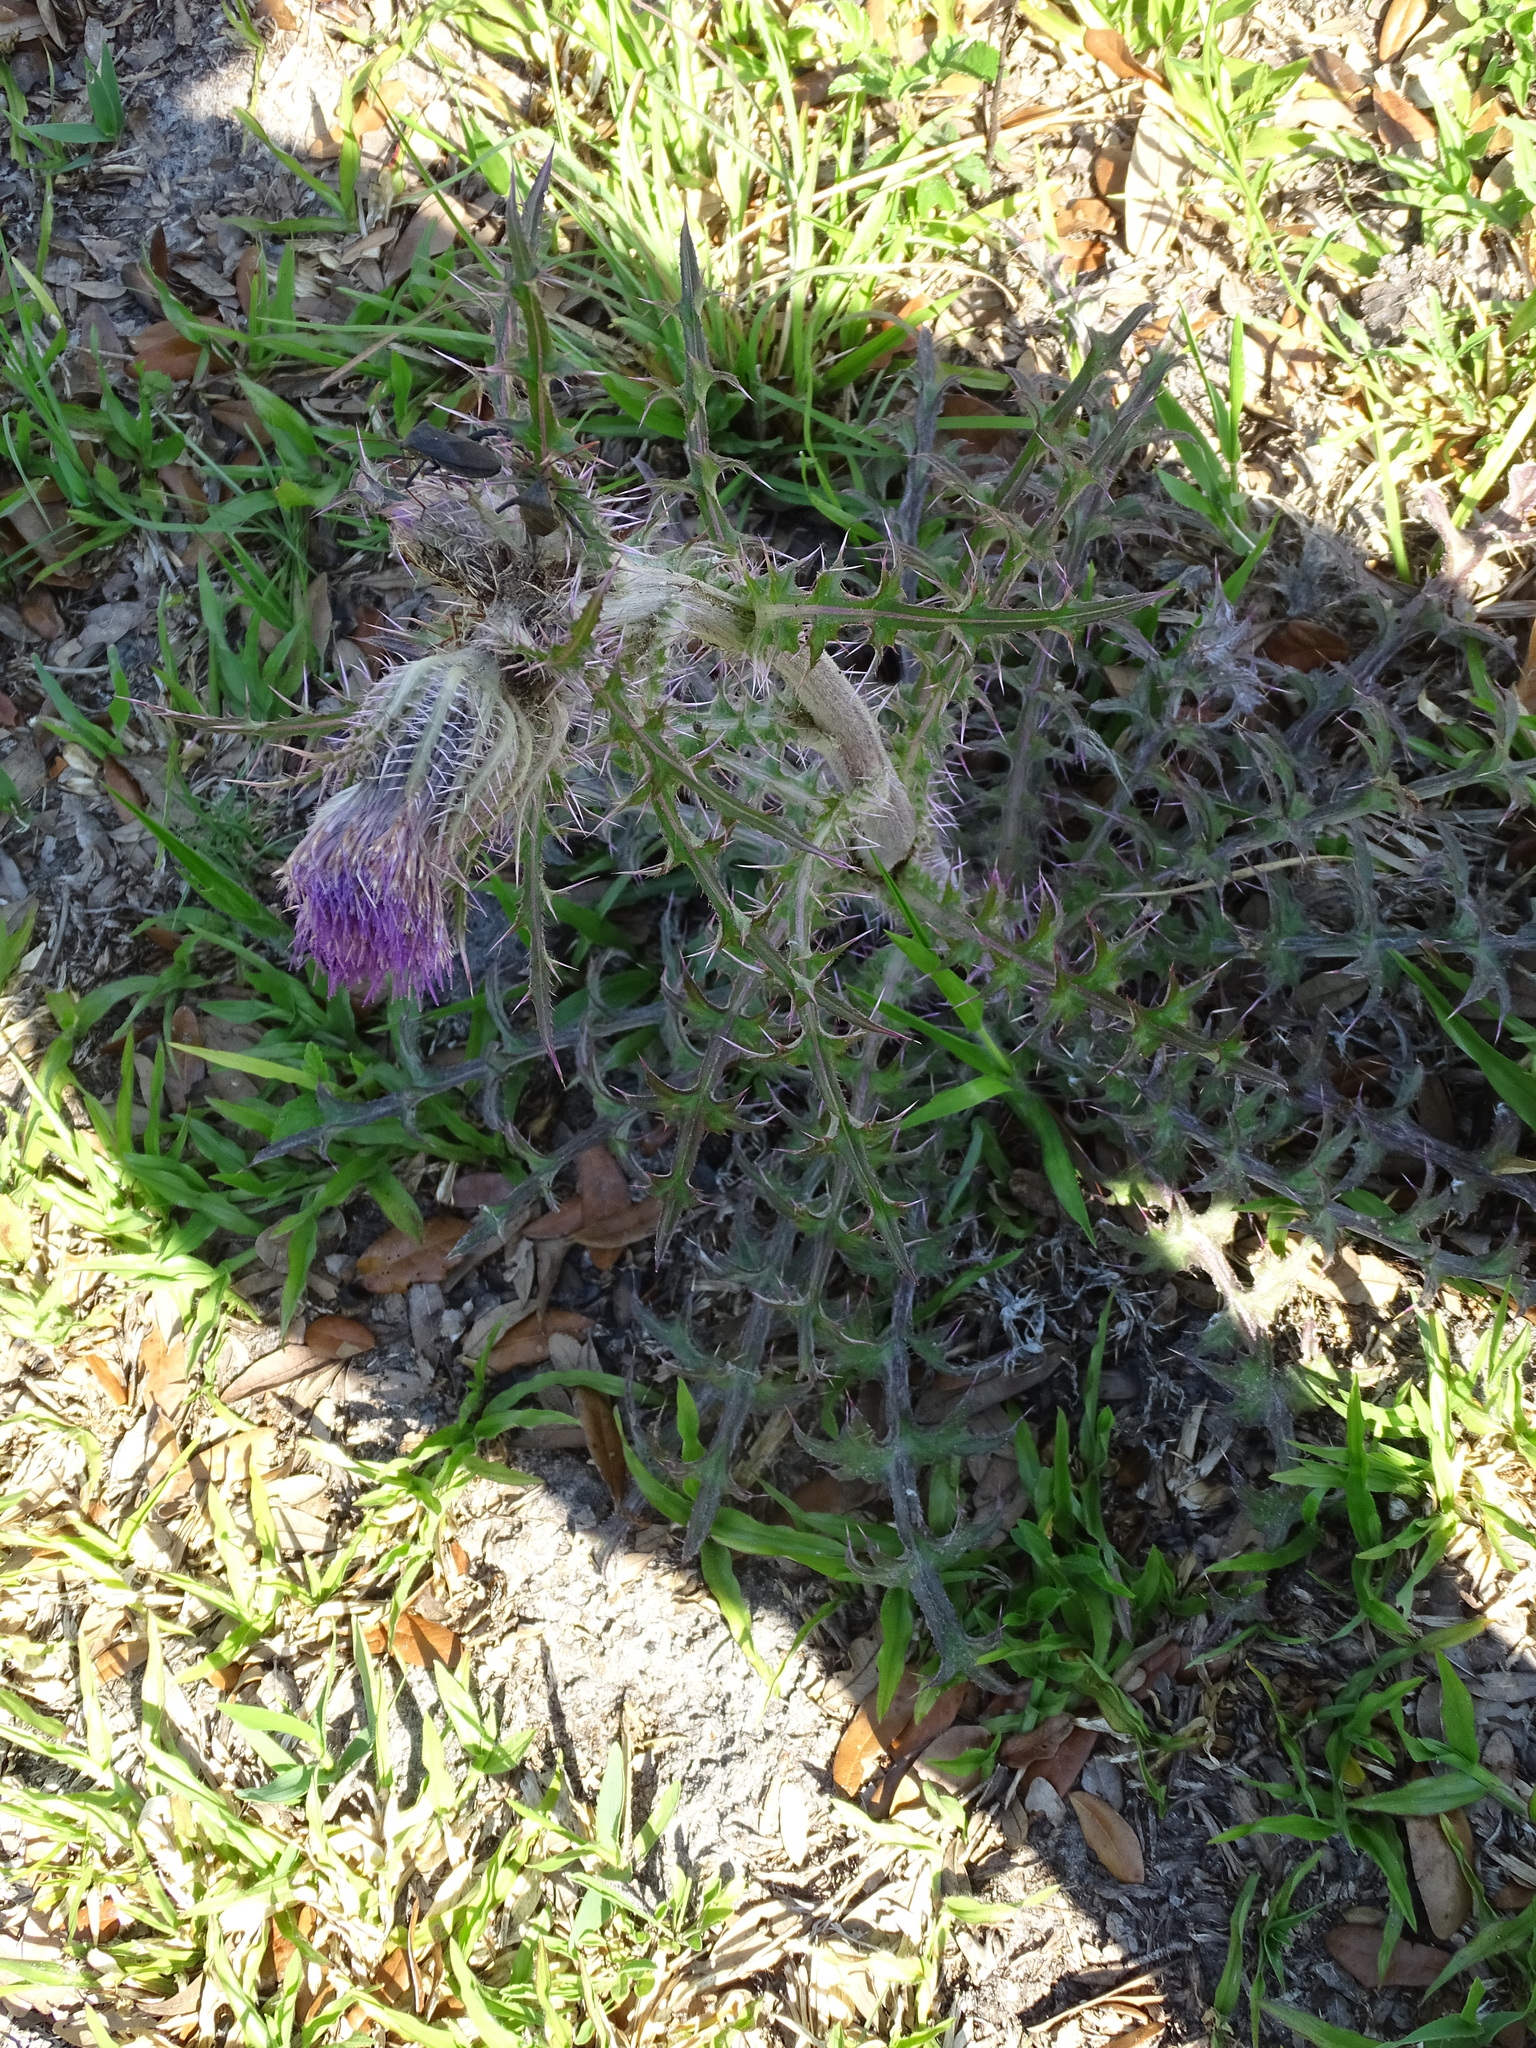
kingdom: Plantae
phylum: Tracheophyta
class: Magnoliopsida
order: Asterales
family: Asteraceae
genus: Cirsium
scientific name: Cirsium horridulum
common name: Bristly thistle
